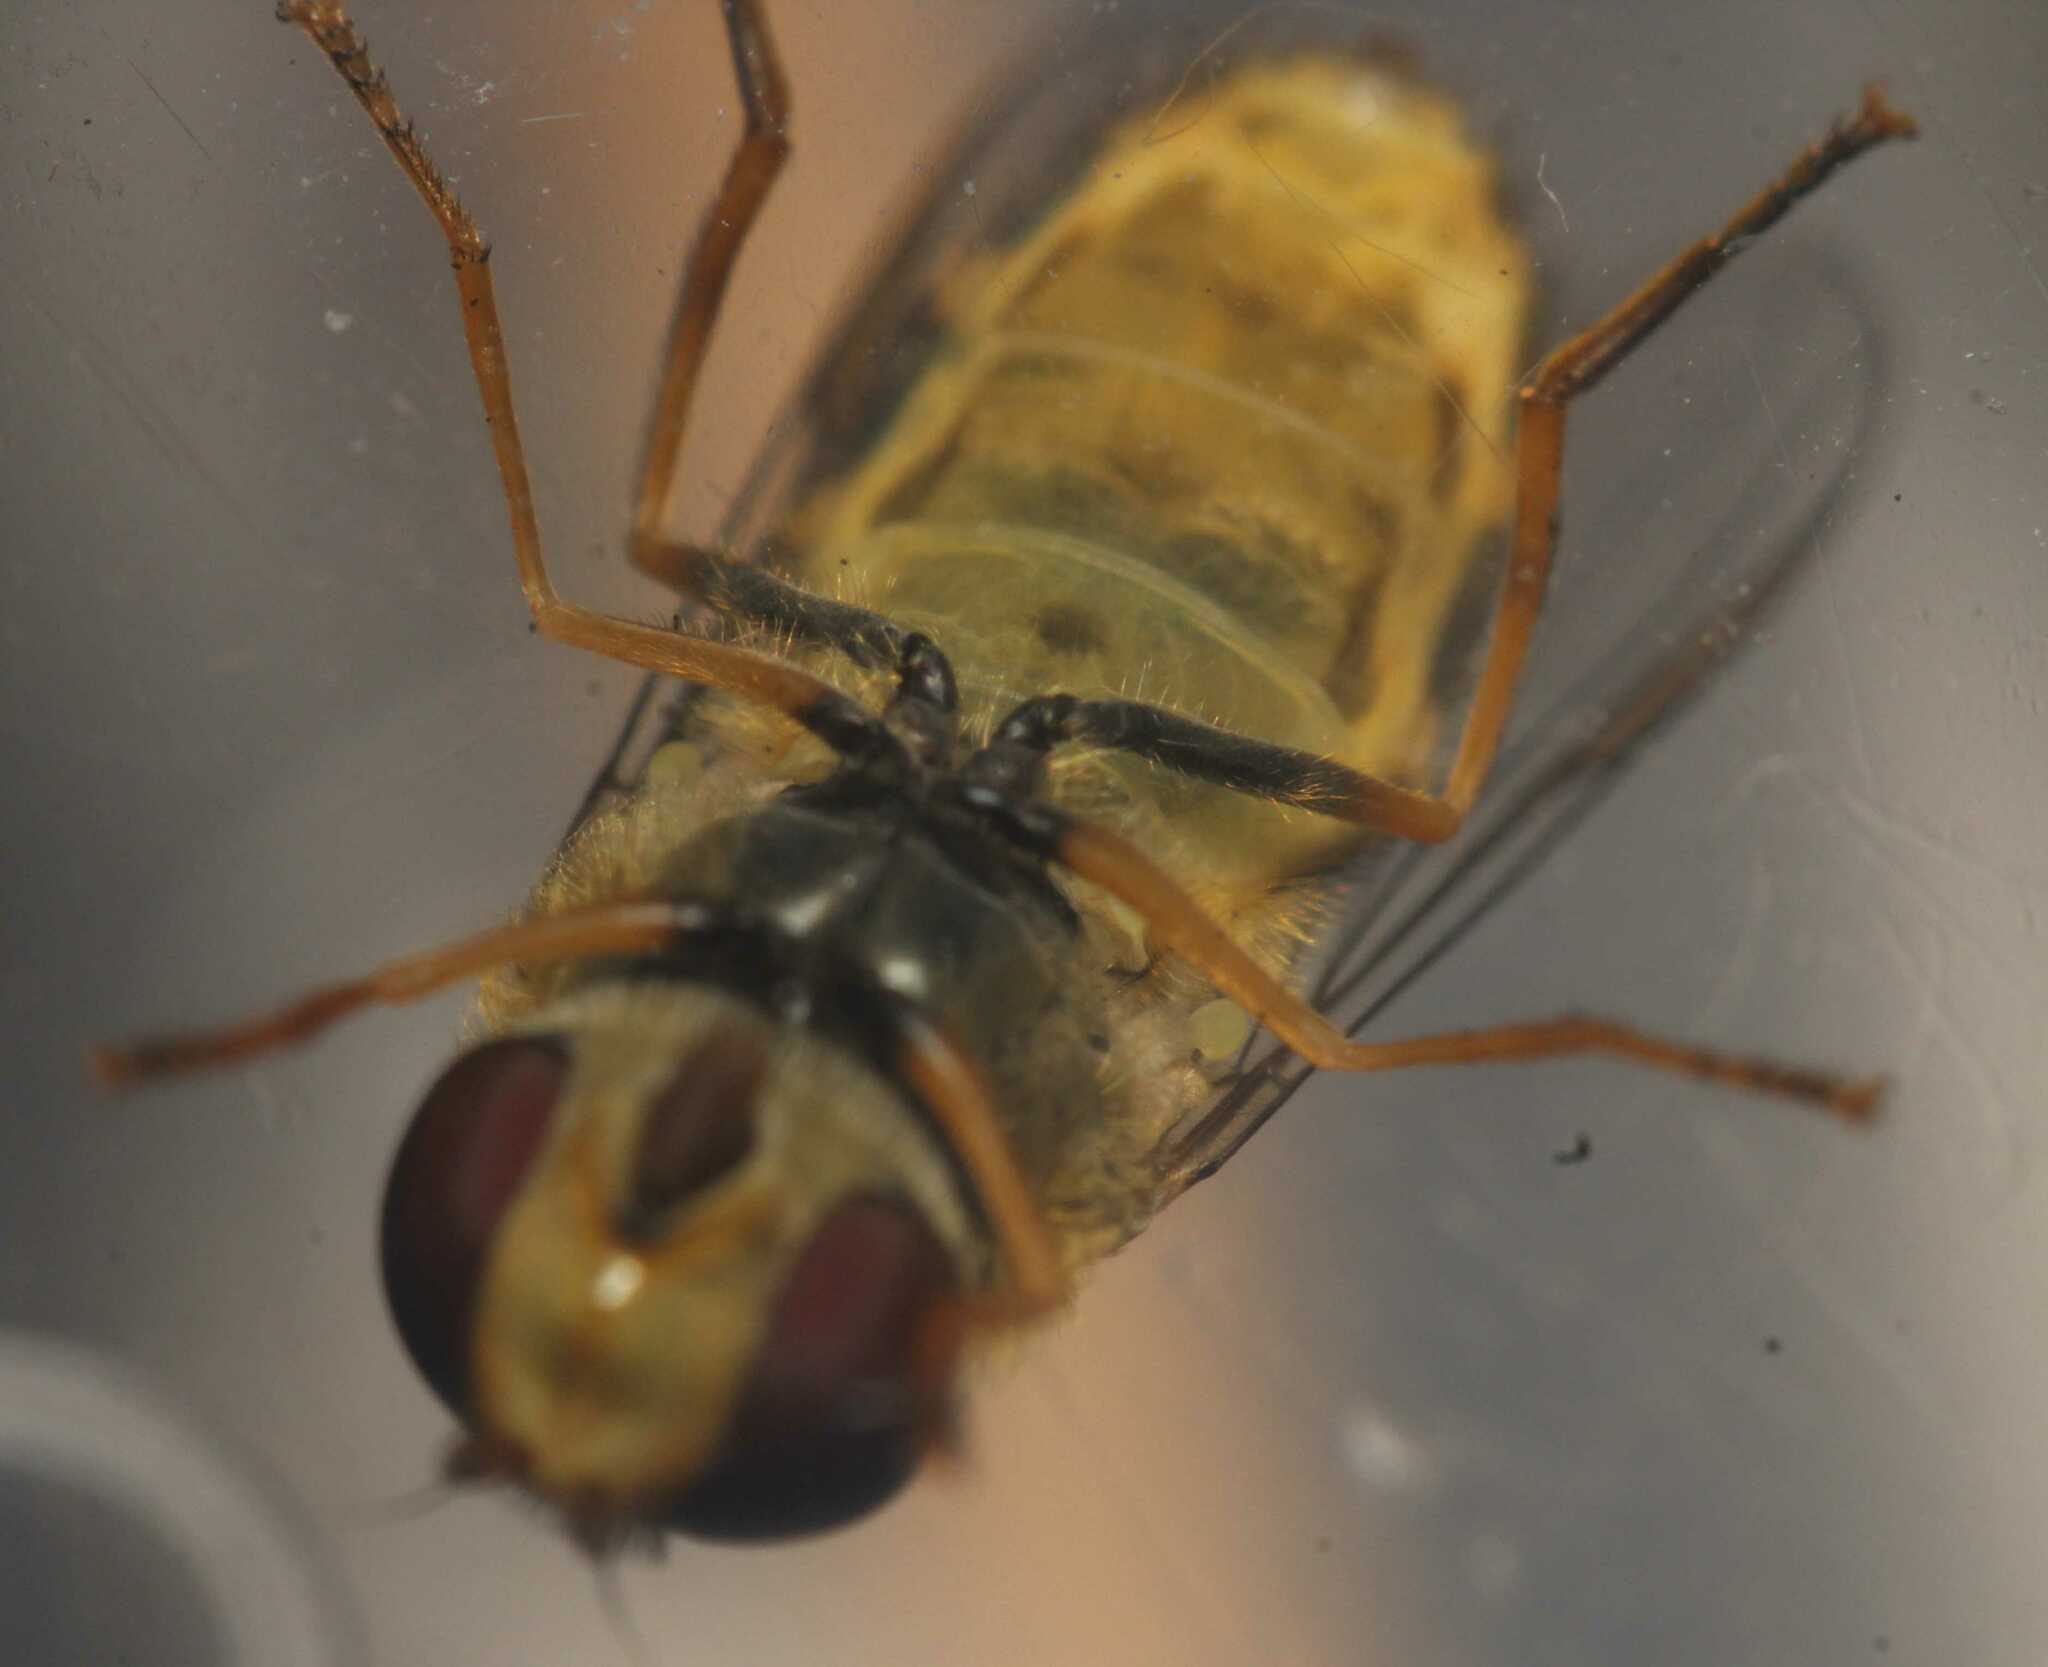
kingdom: Animalia
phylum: Arthropoda
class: Insecta
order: Diptera
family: Syrphidae
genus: Syrphus
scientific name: Syrphus vitripennis
